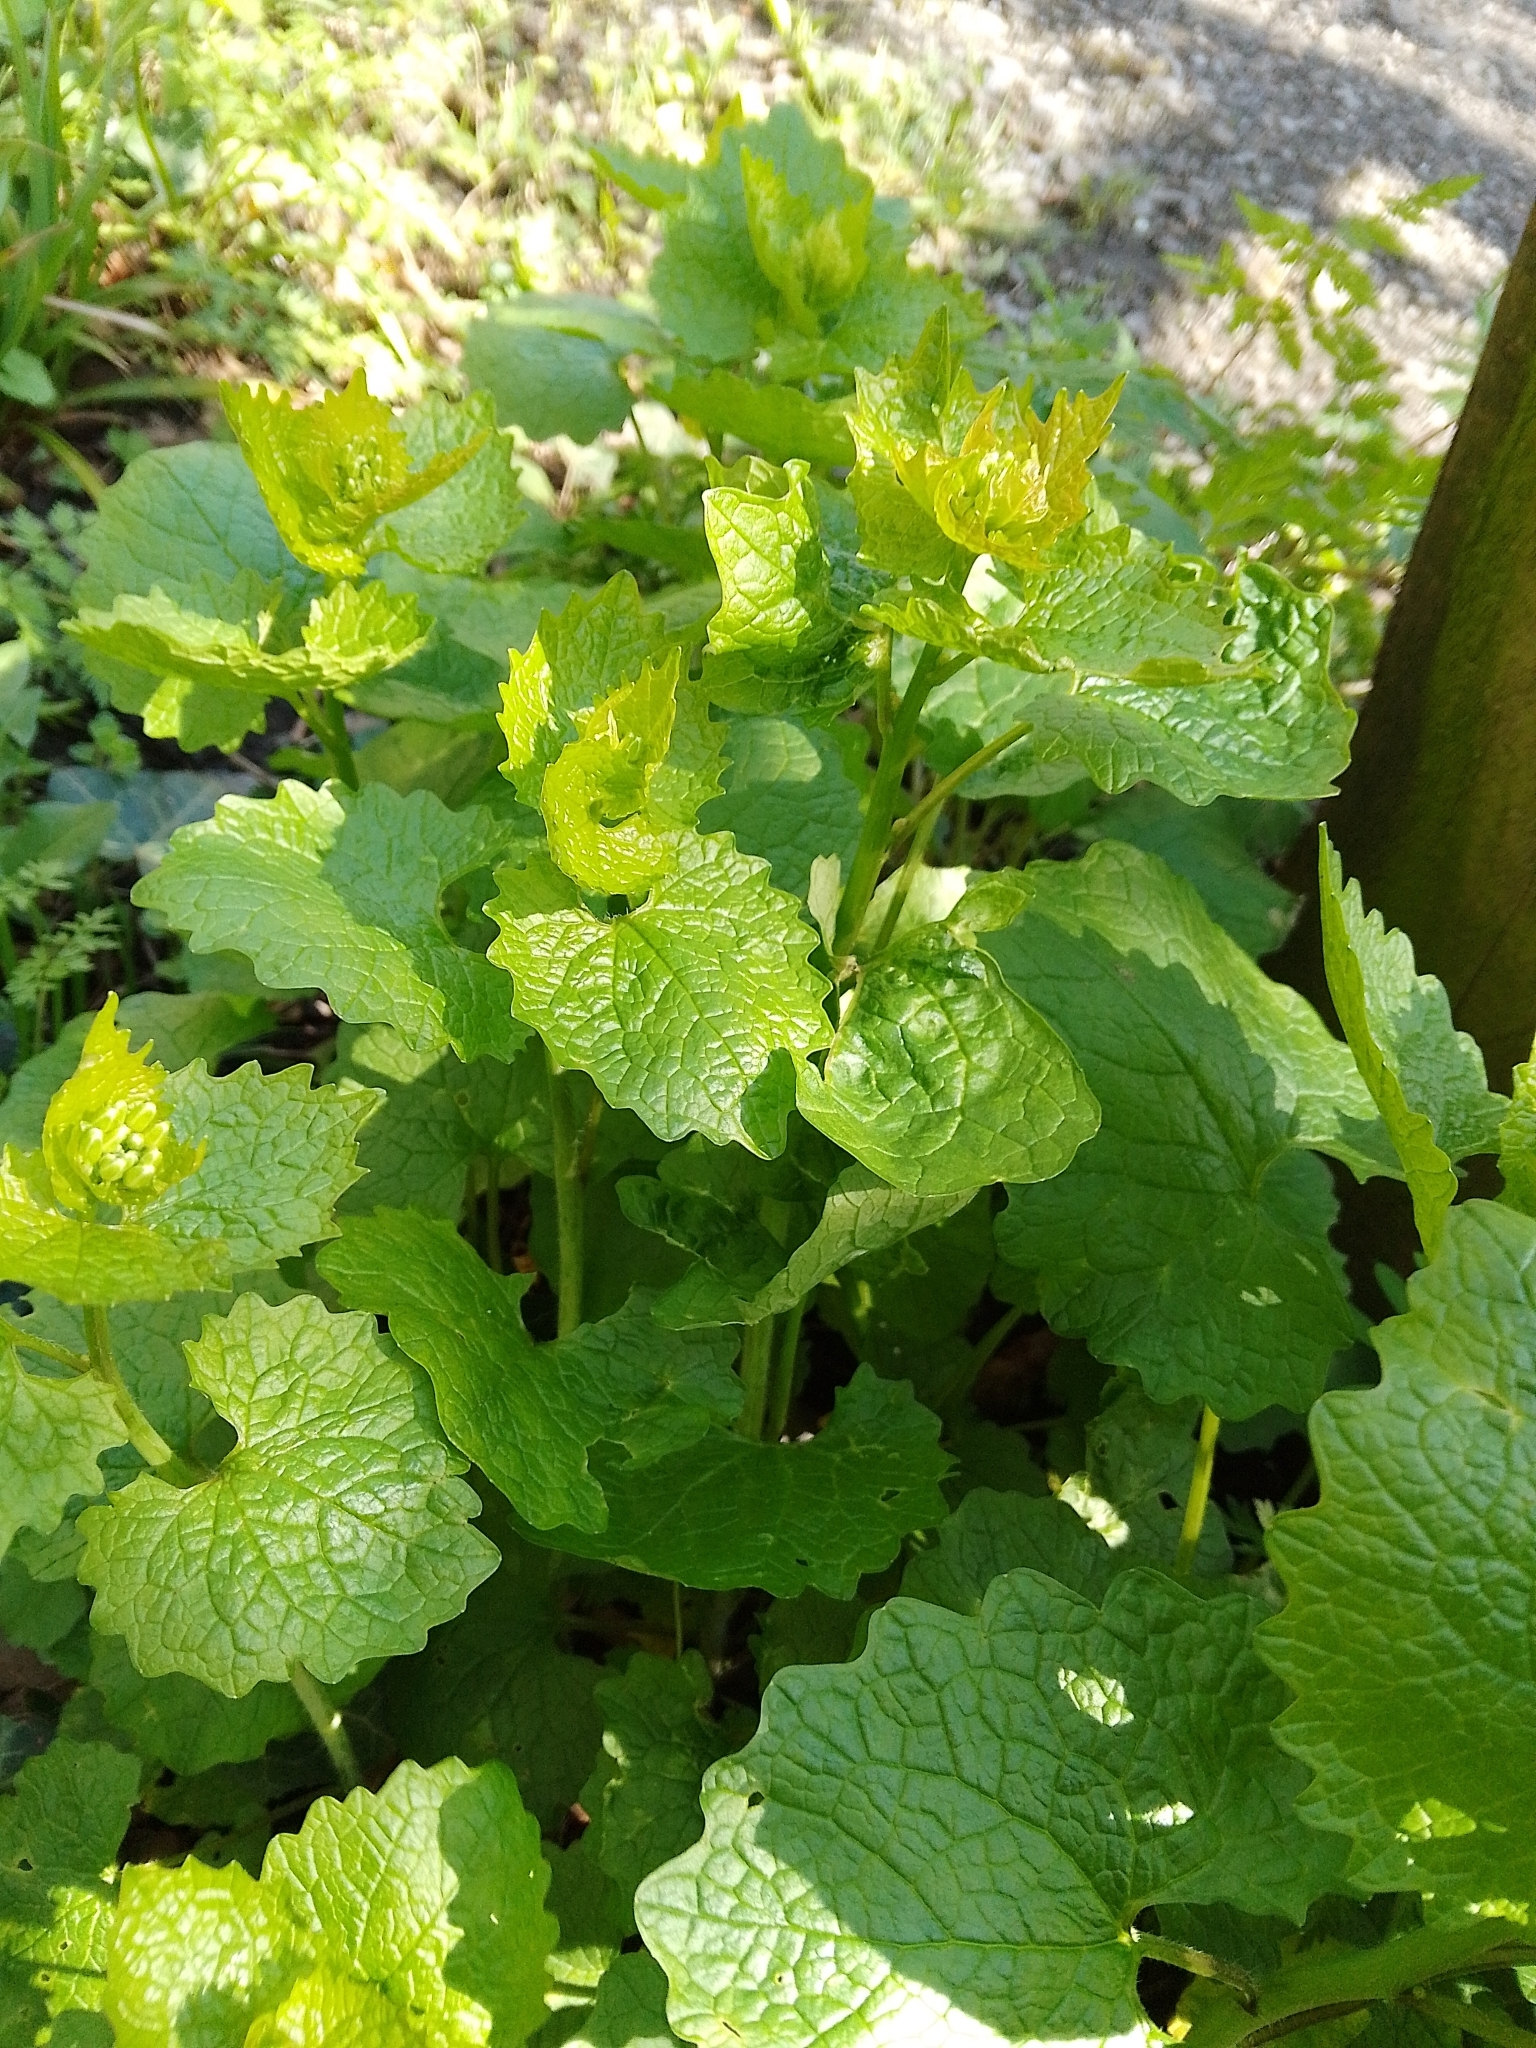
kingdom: Plantae
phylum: Tracheophyta
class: Magnoliopsida
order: Brassicales
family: Brassicaceae
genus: Alliaria
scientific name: Alliaria petiolata
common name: Garlic mustard
